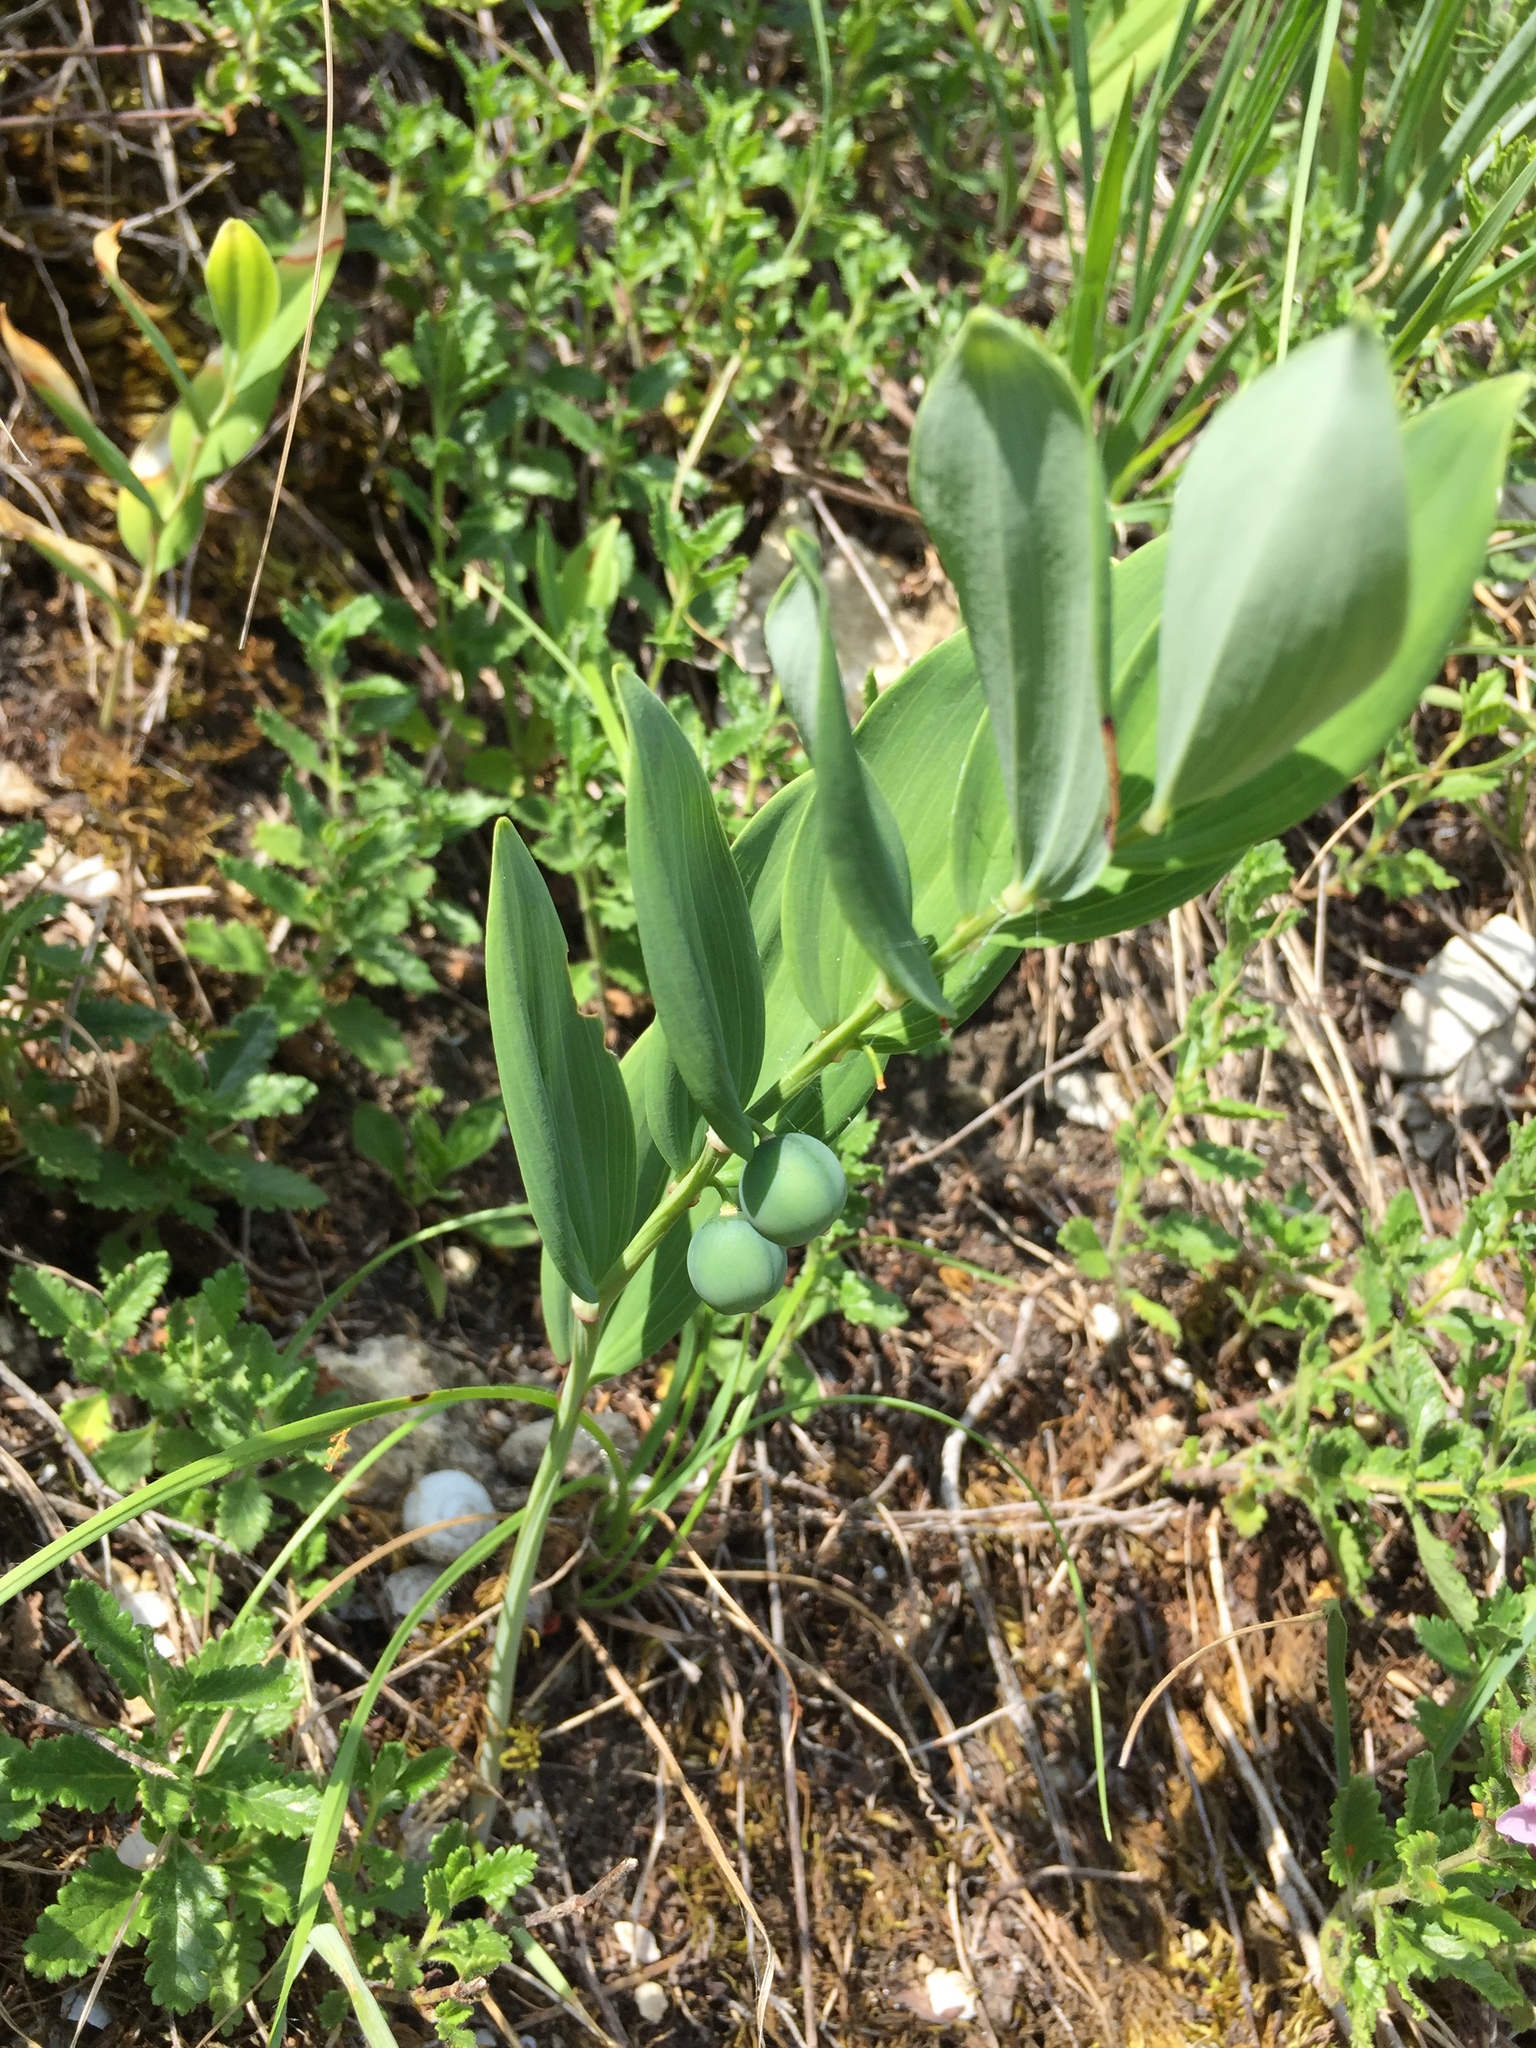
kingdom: Plantae
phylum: Tracheophyta
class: Liliopsida
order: Asparagales
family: Asparagaceae
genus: Polygonatum
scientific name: Polygonatum odoratum
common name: Angular solomon's-seal
